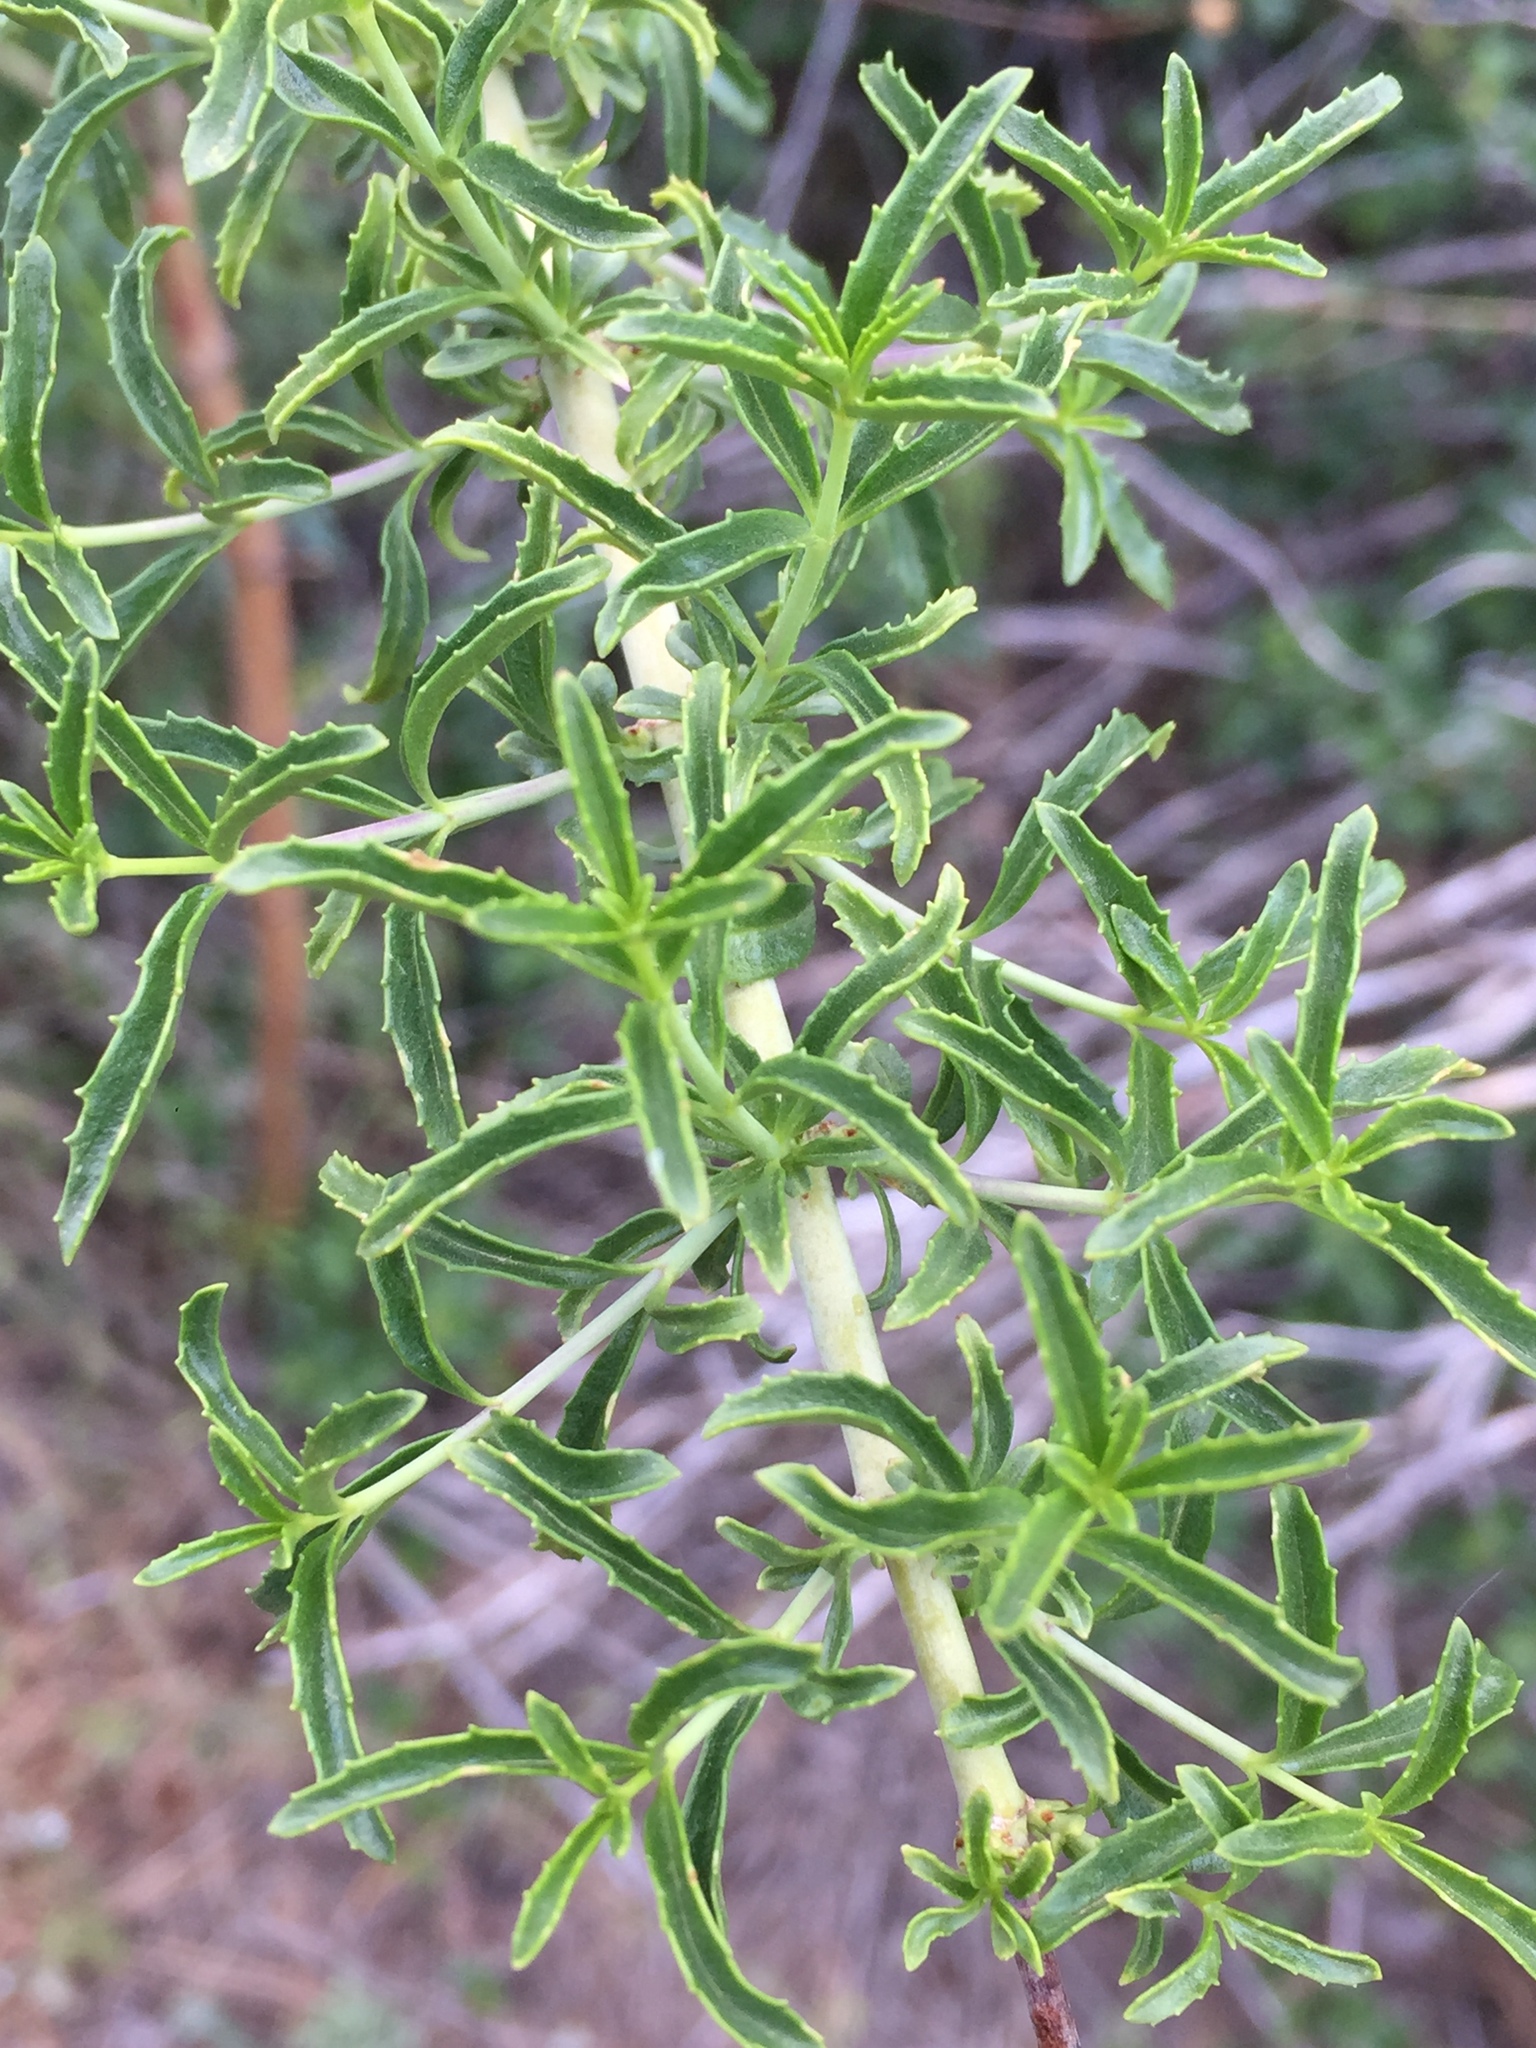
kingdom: Plantae
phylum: Tracheophyta
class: Magnoliopsida
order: Lamiales
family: Plantaginaceae
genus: Keckiella
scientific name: Keckiella ternata
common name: Scarlet keckiella
